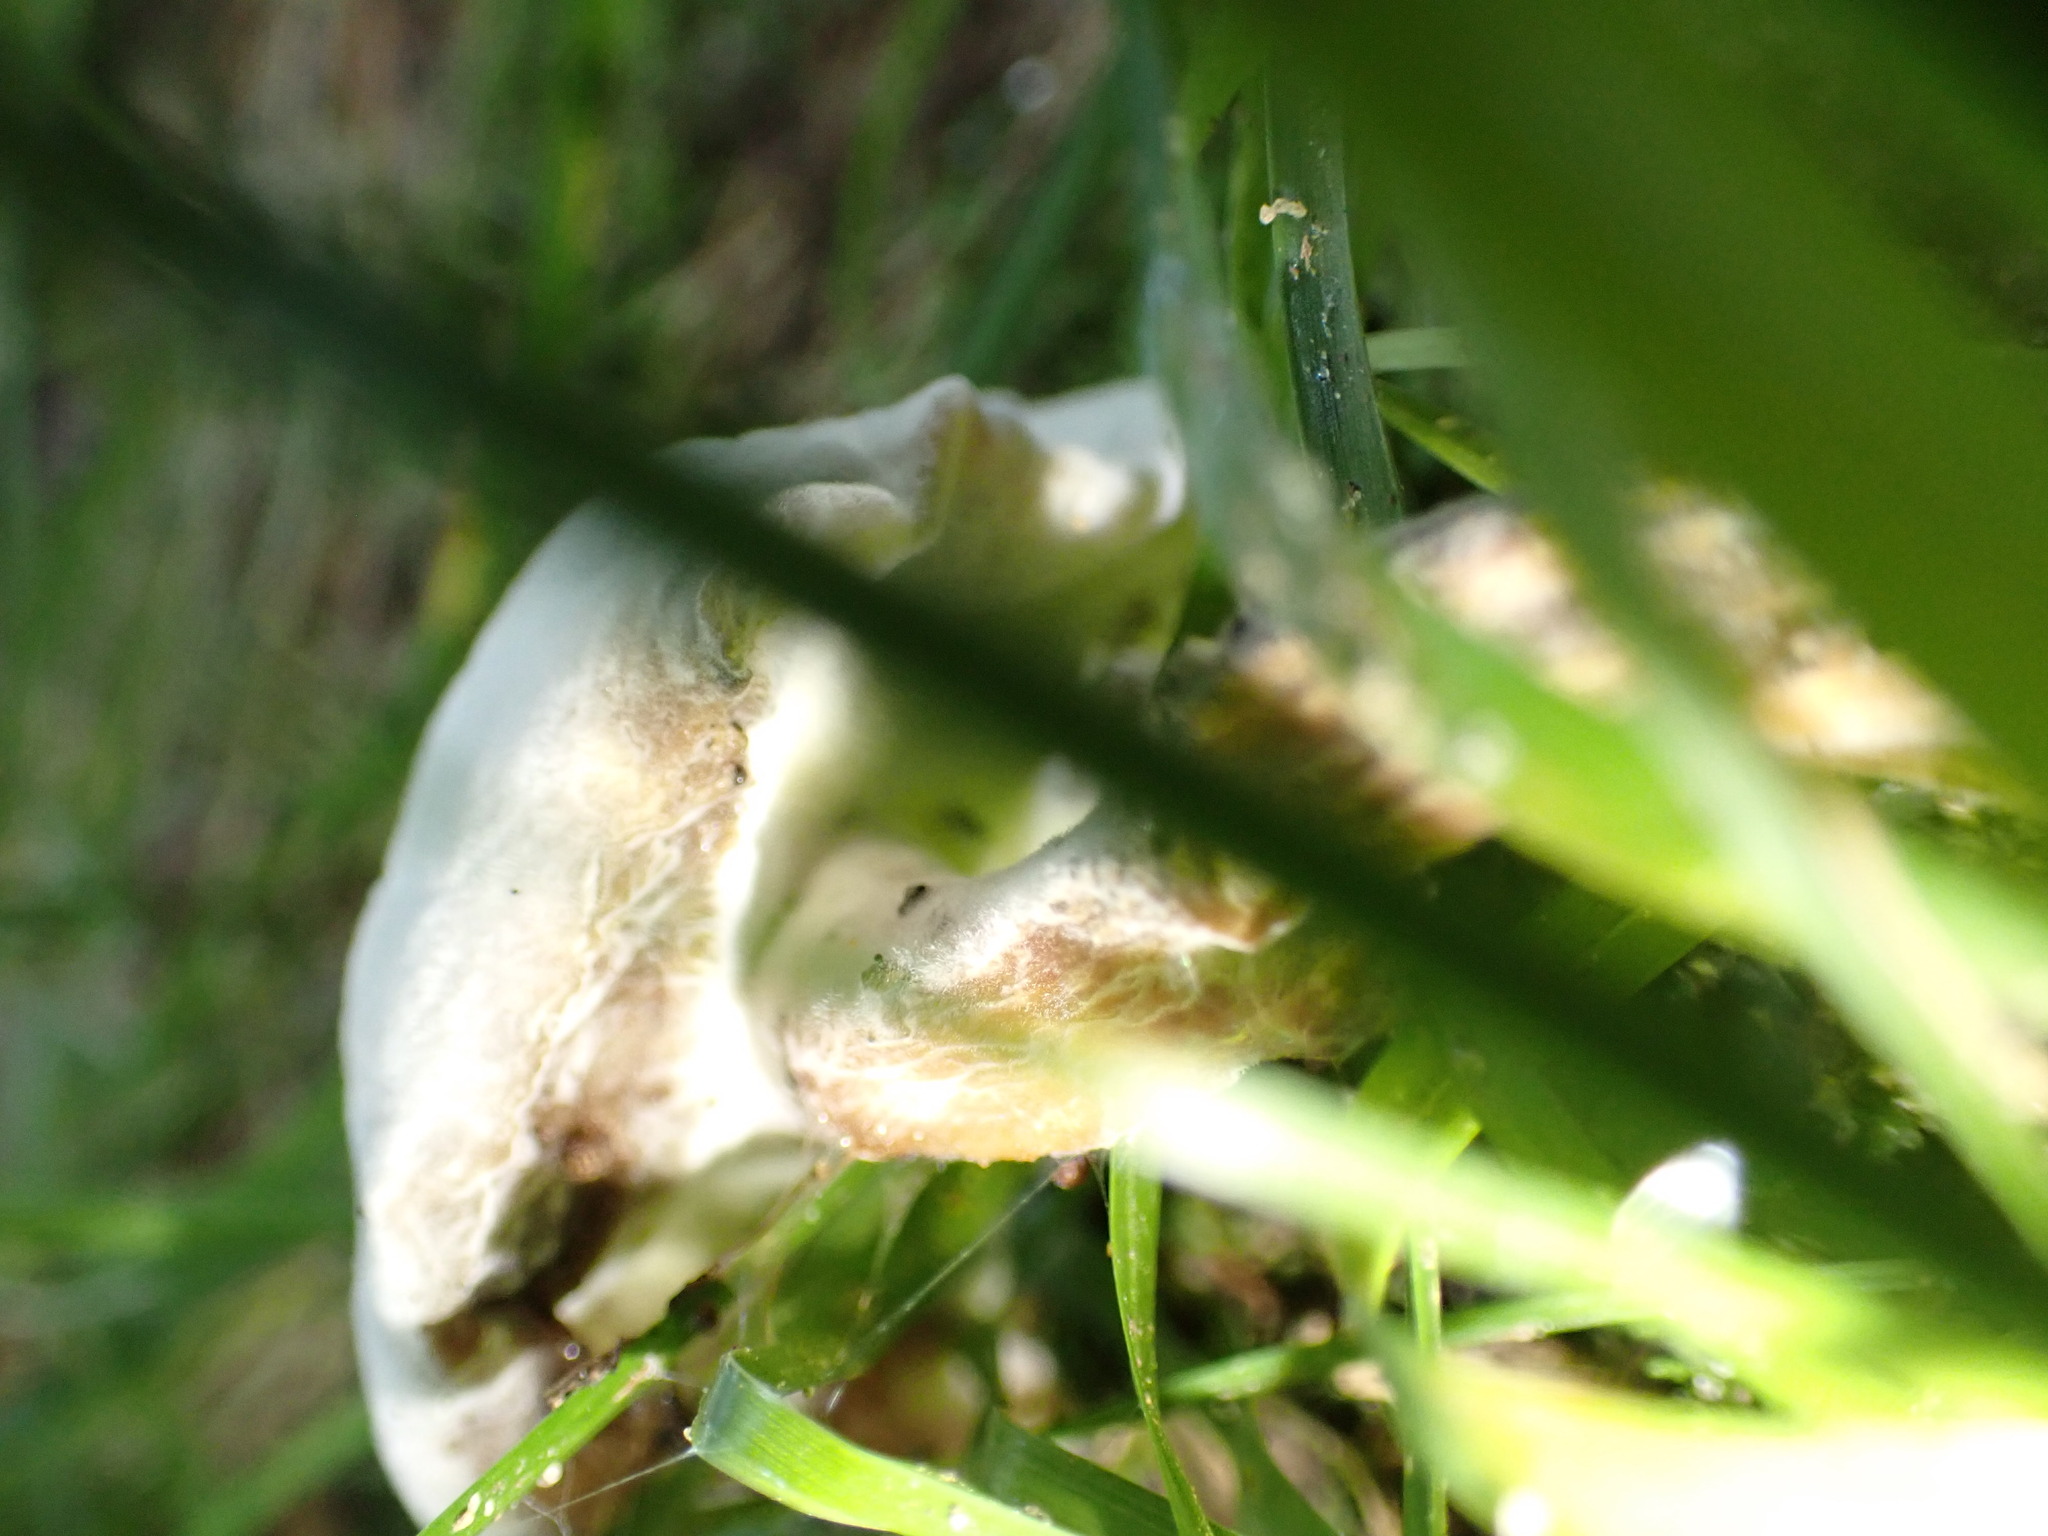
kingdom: Fungi
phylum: Ascomycota
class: Sordariomycetes
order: Hypocreales
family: Hypocreaceae
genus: Hypomyces
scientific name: Hypomyces
